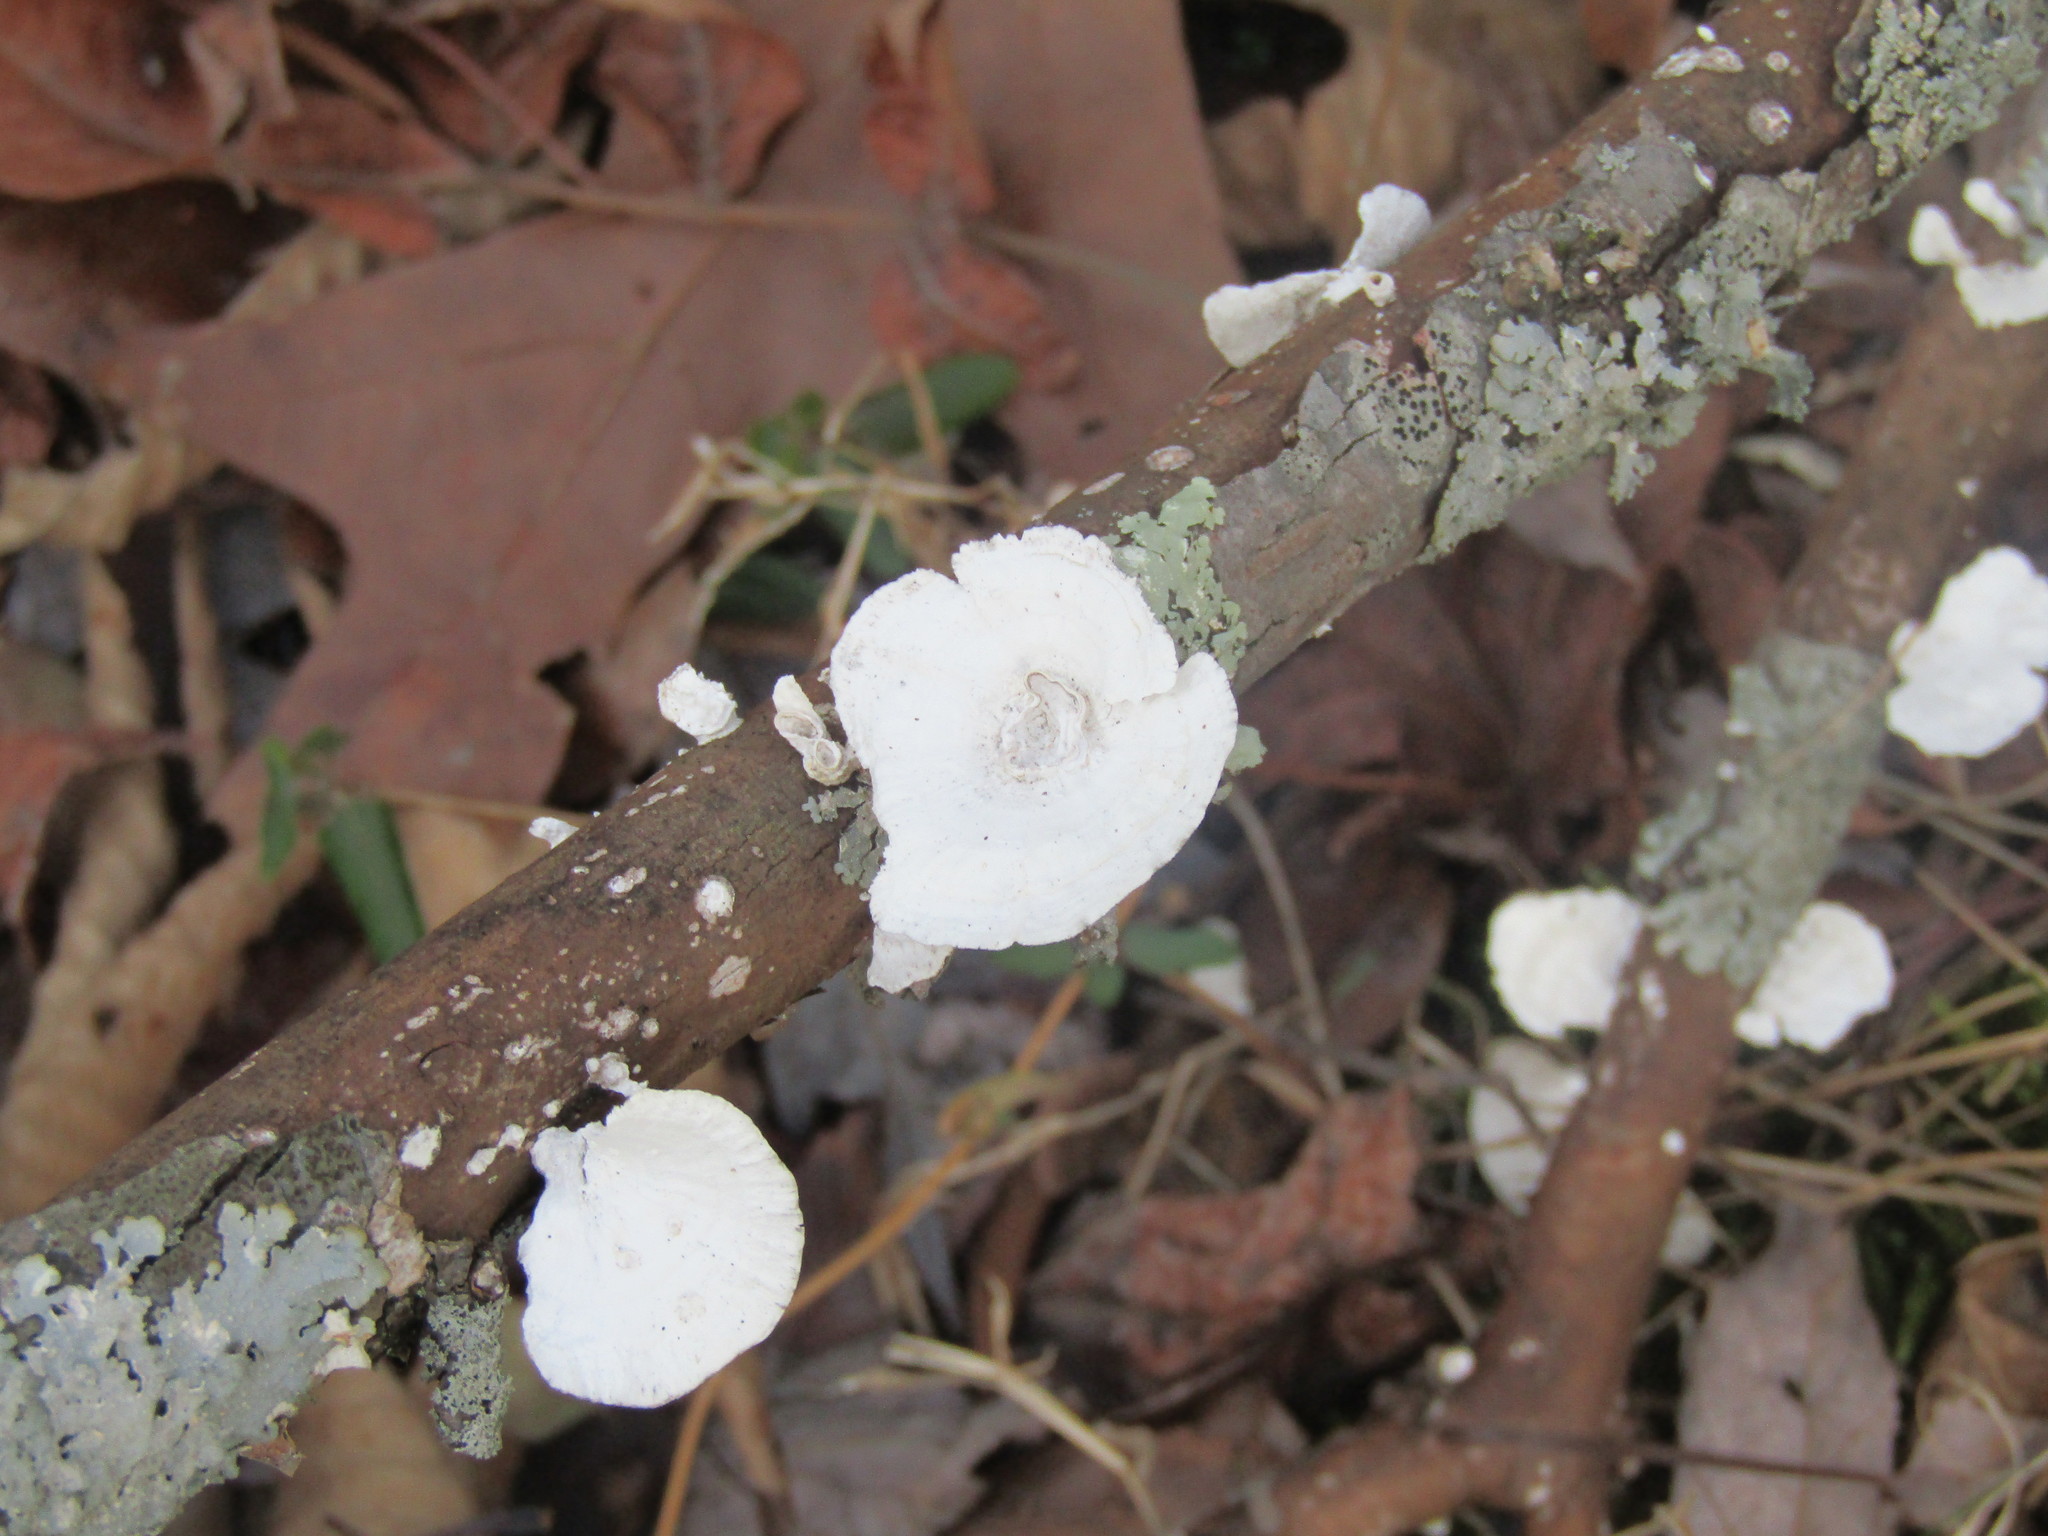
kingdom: Fungi
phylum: Basidiomycota
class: Agaricomycetes
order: Polyporales
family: Polyporaceae
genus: Poronidulus
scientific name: Poronidulus conchifer
